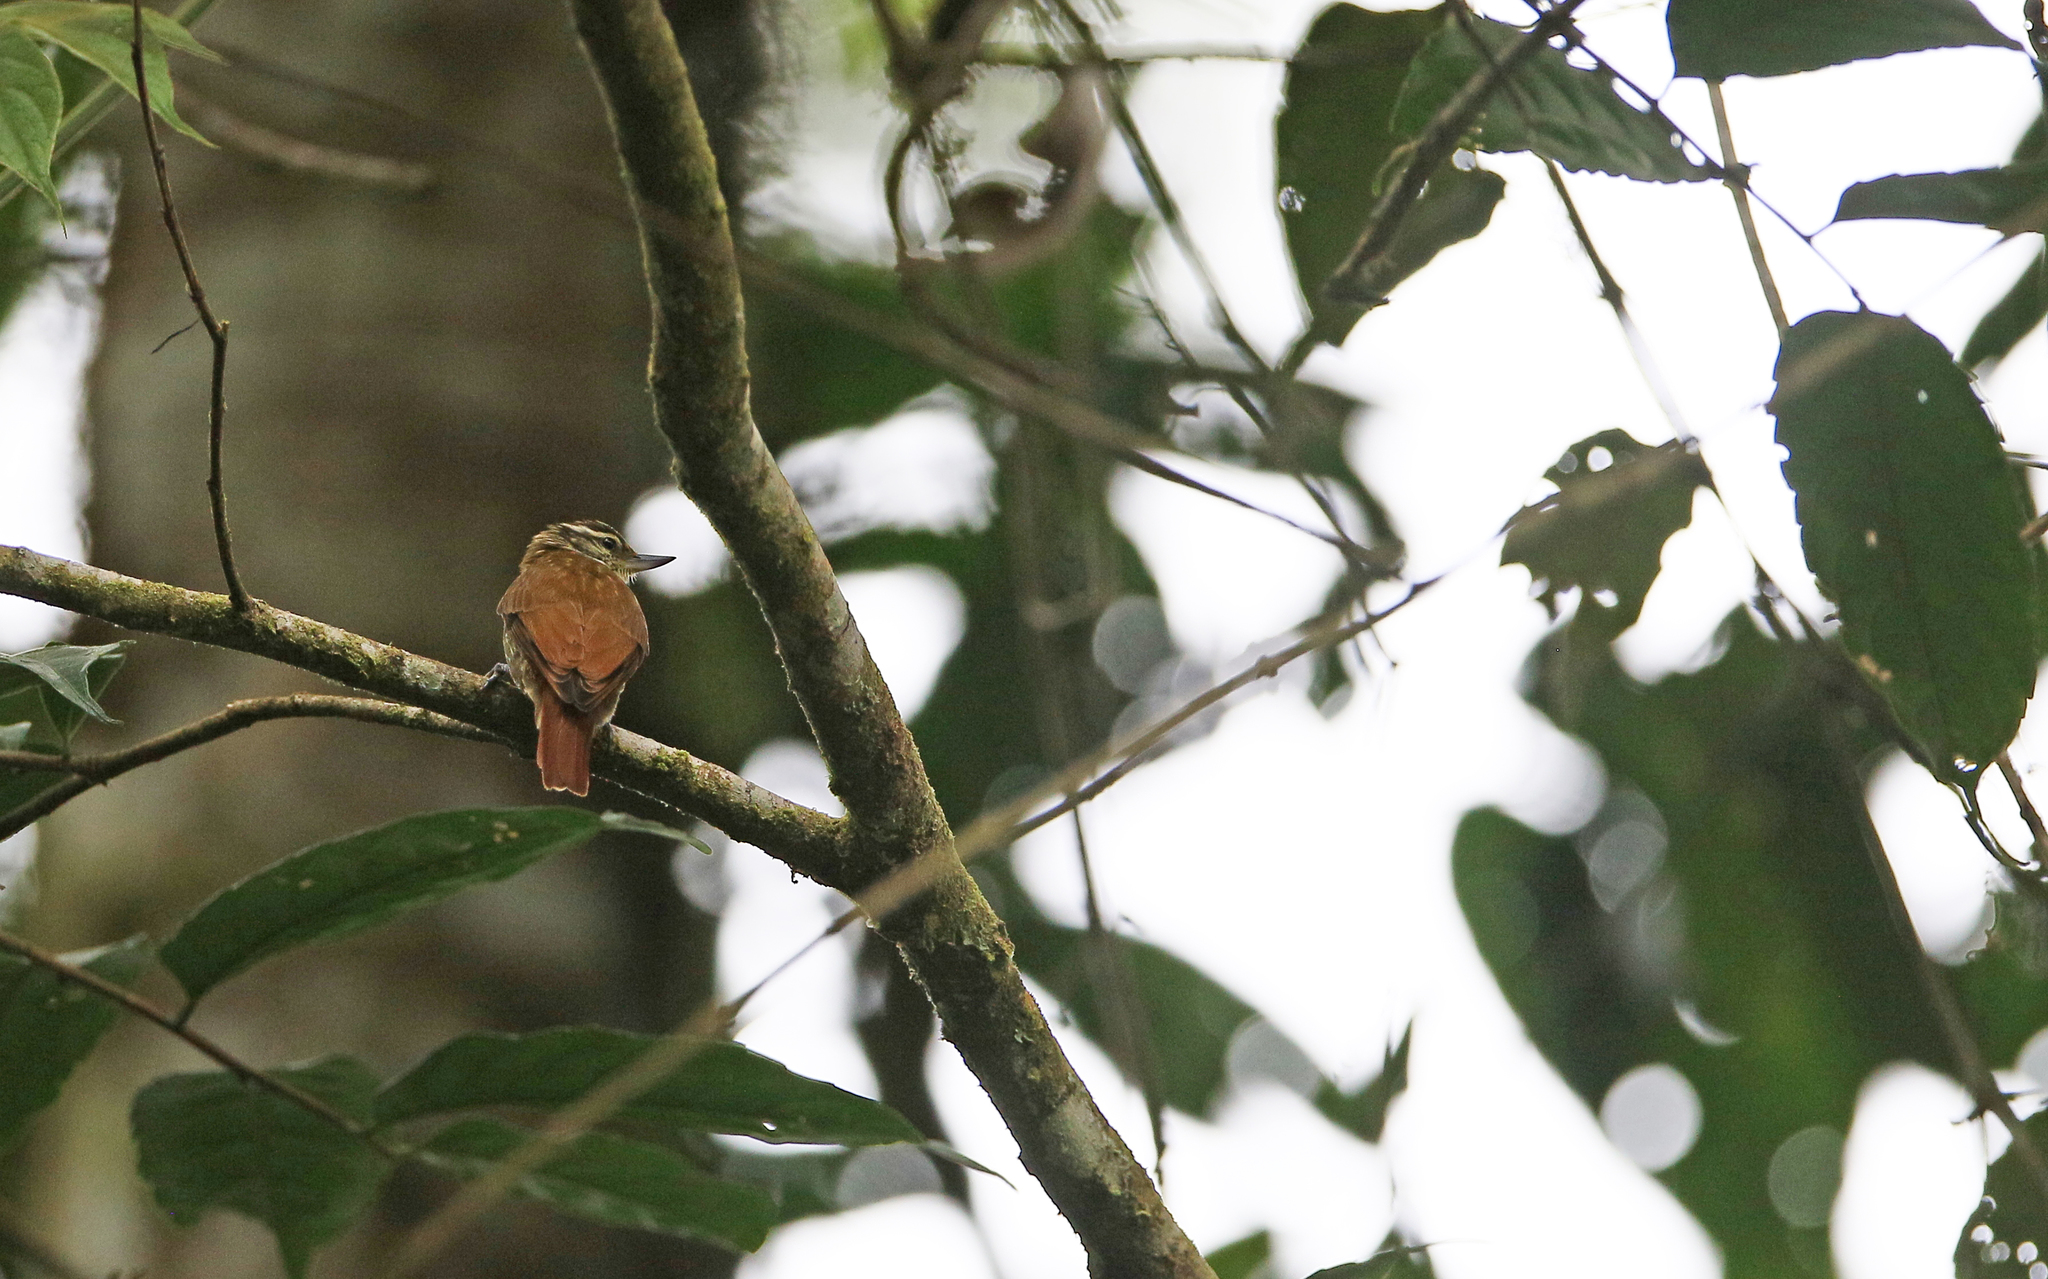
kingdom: Animalia
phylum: Chordata
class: Aves
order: Passeriformes
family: Furnariidae
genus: Xenops
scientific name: Xenops rutilans
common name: Streaked xenops
